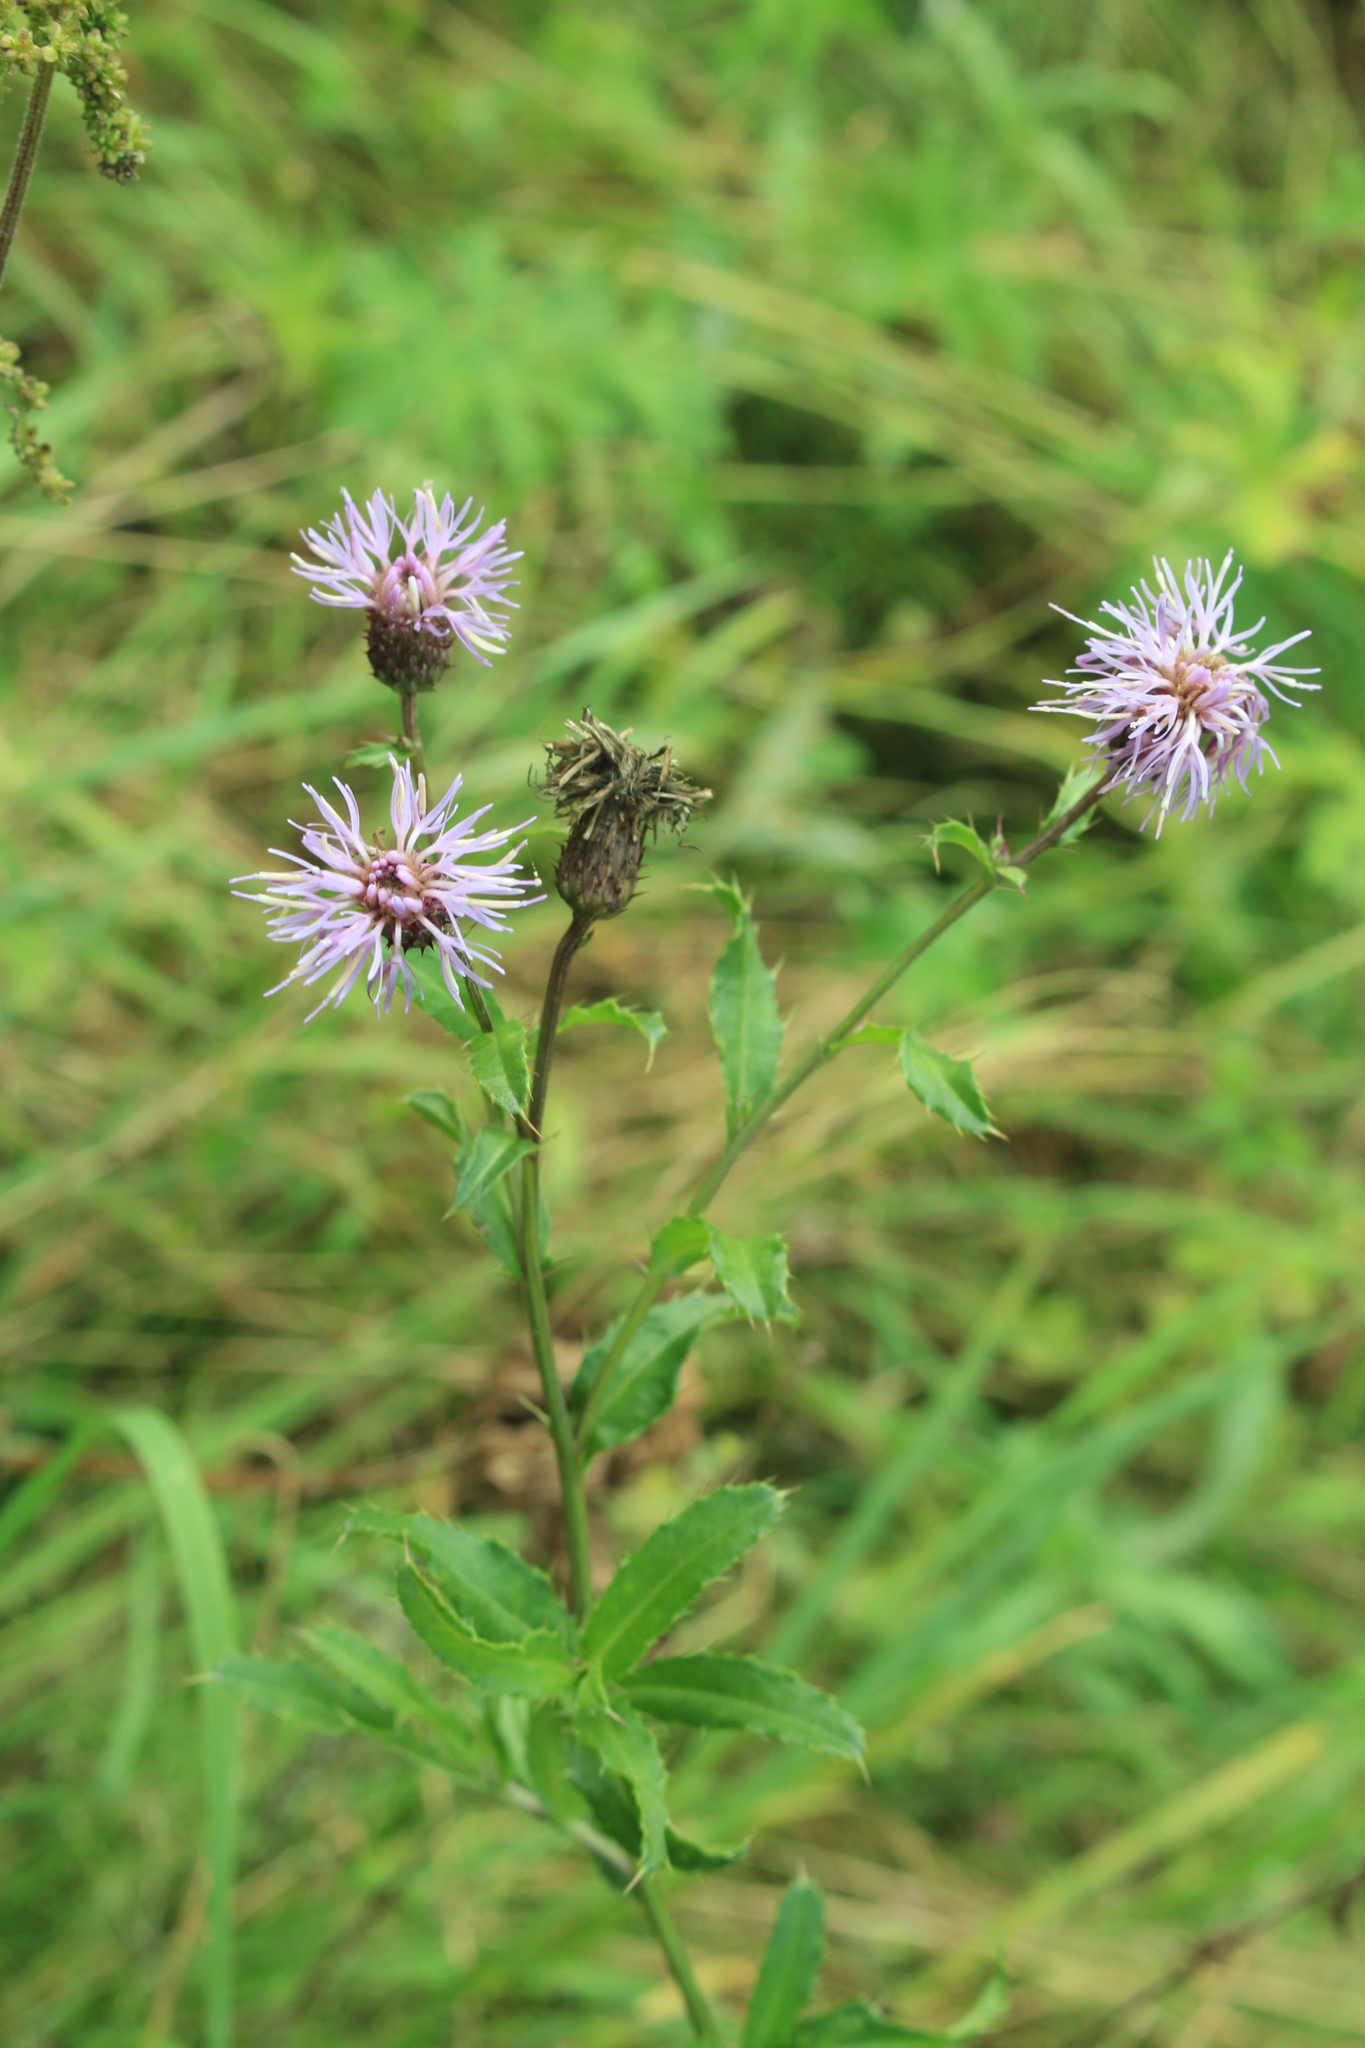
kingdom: Plantae
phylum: Tracheophyta
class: Magnoliopsida
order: Asterales
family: Asteraceae
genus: Cirsium
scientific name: Cirsium arvense
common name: Creeping thistle
